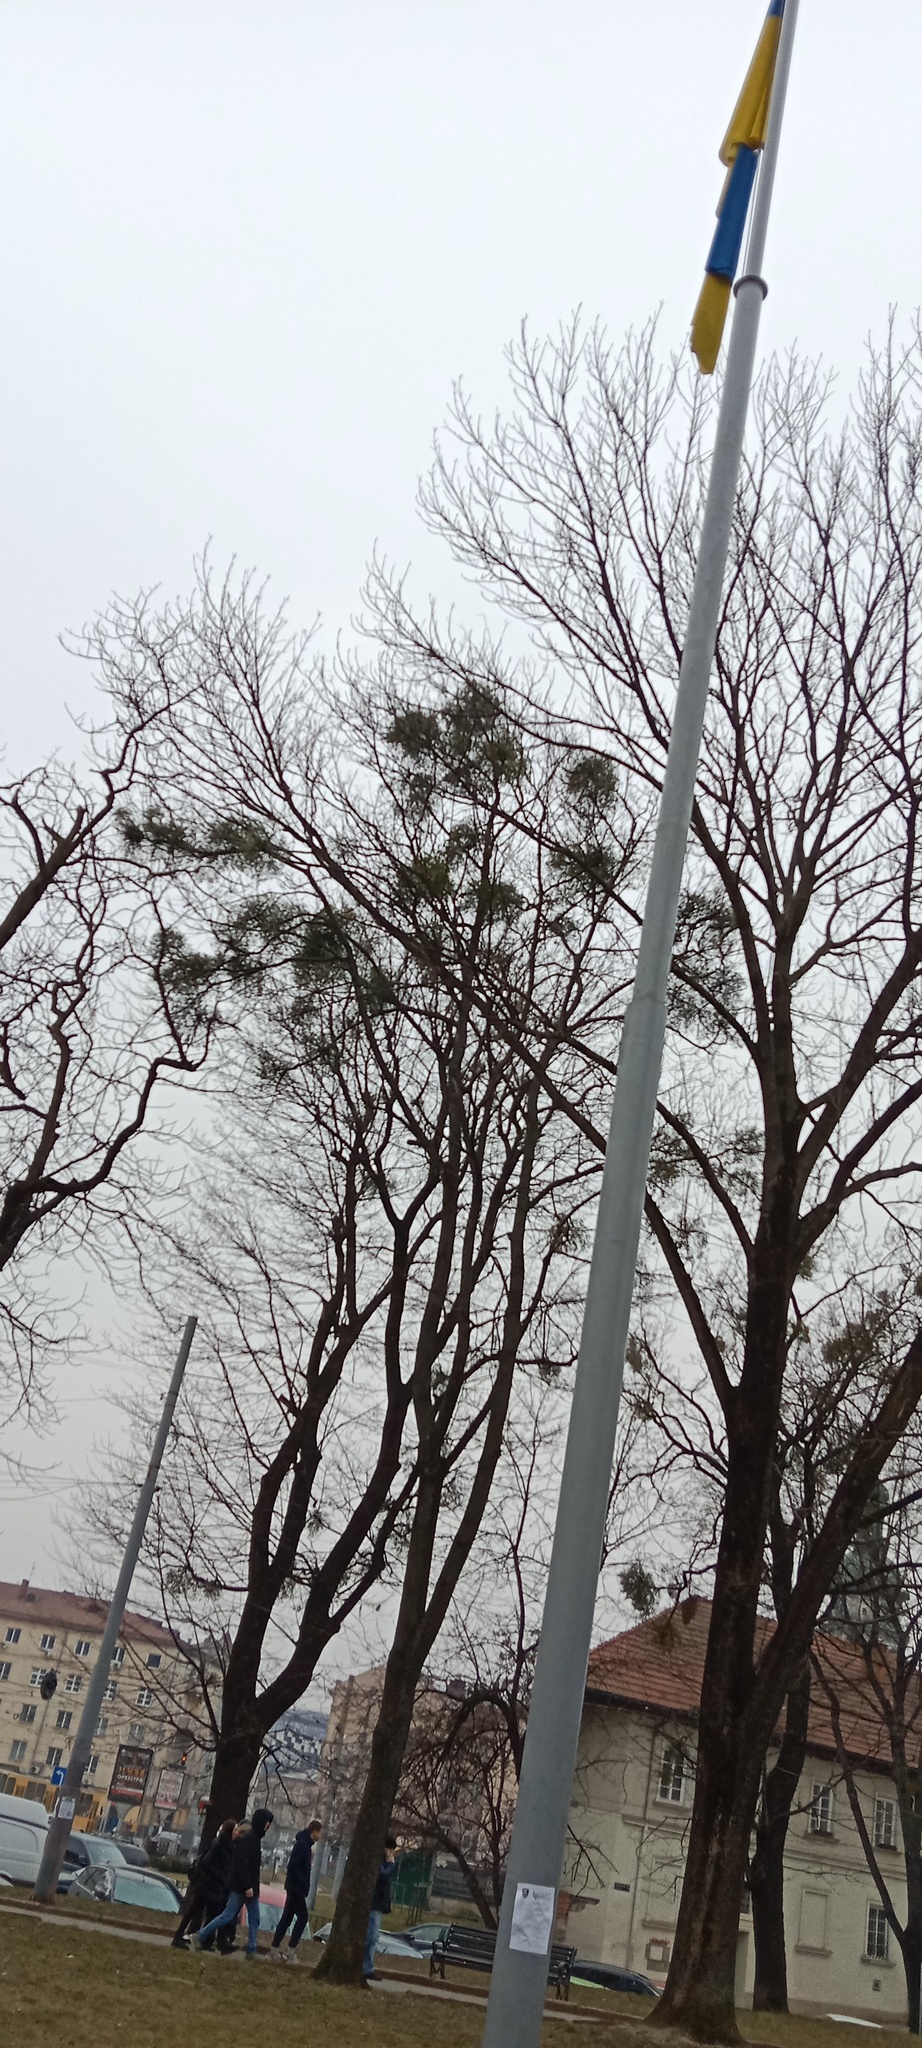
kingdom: Plantae
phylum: Tracheophyta
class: Magnoliopsida
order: Santalales
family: Viscaceae
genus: Viscum
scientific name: Viscum album
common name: Mistletoe
